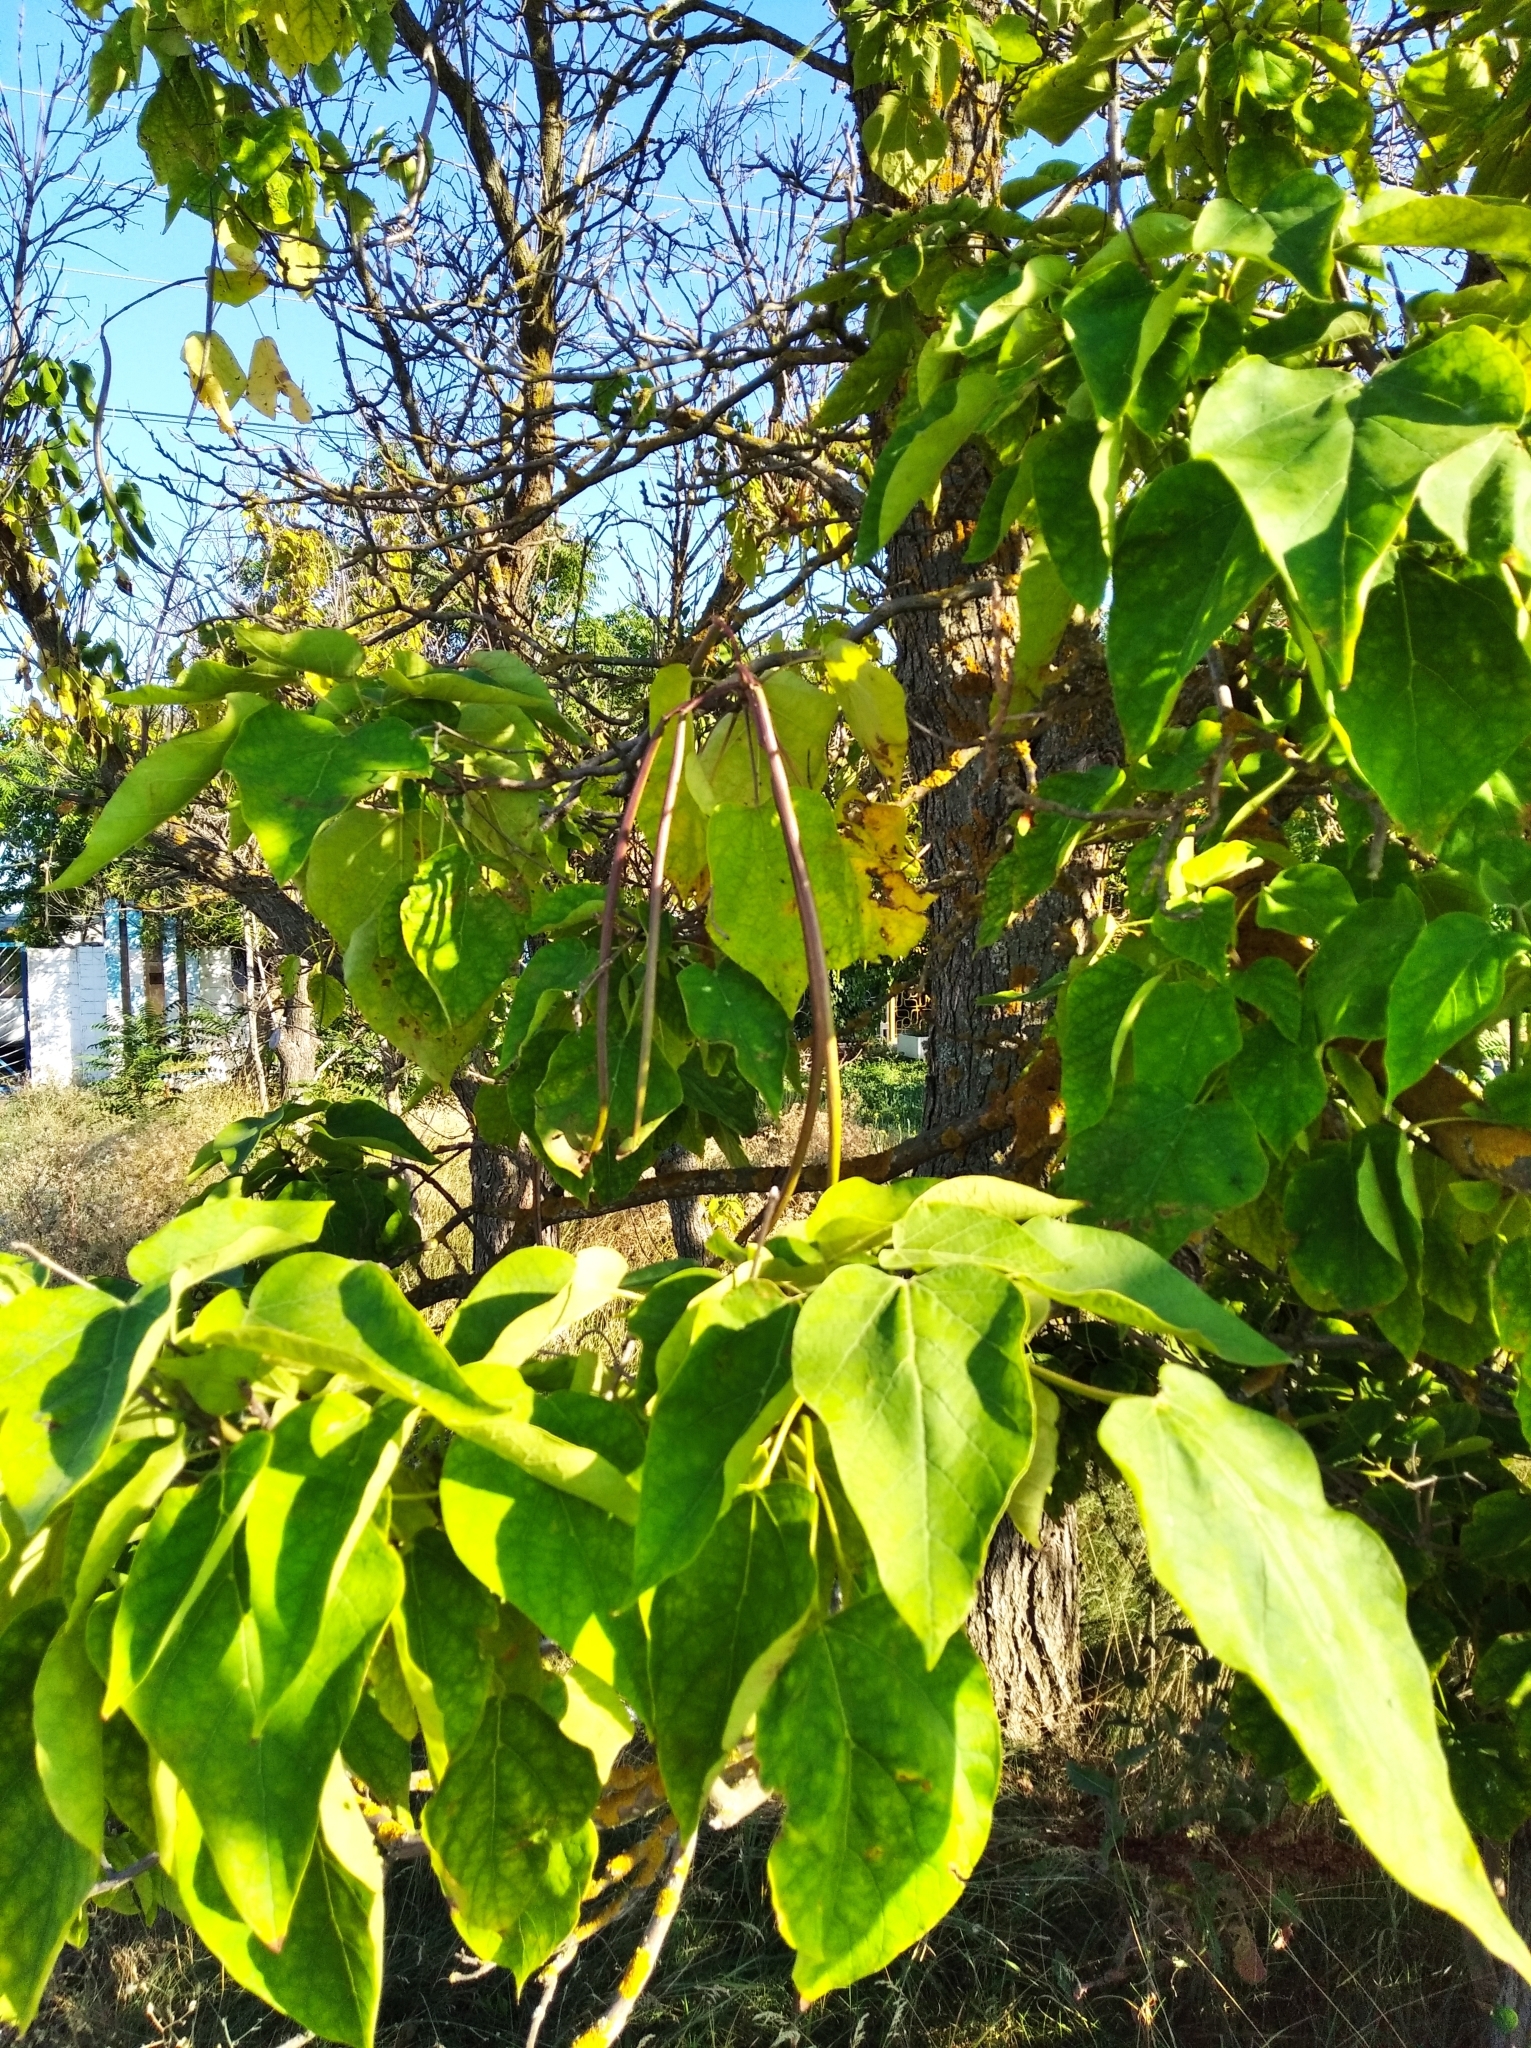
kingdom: Plantae
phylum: Tracheophyta
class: Magnoliopsida
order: Lamiales
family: Bignoniaceae
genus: Catalpa
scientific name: Catalpa bignonioides
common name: Southern catalpa
